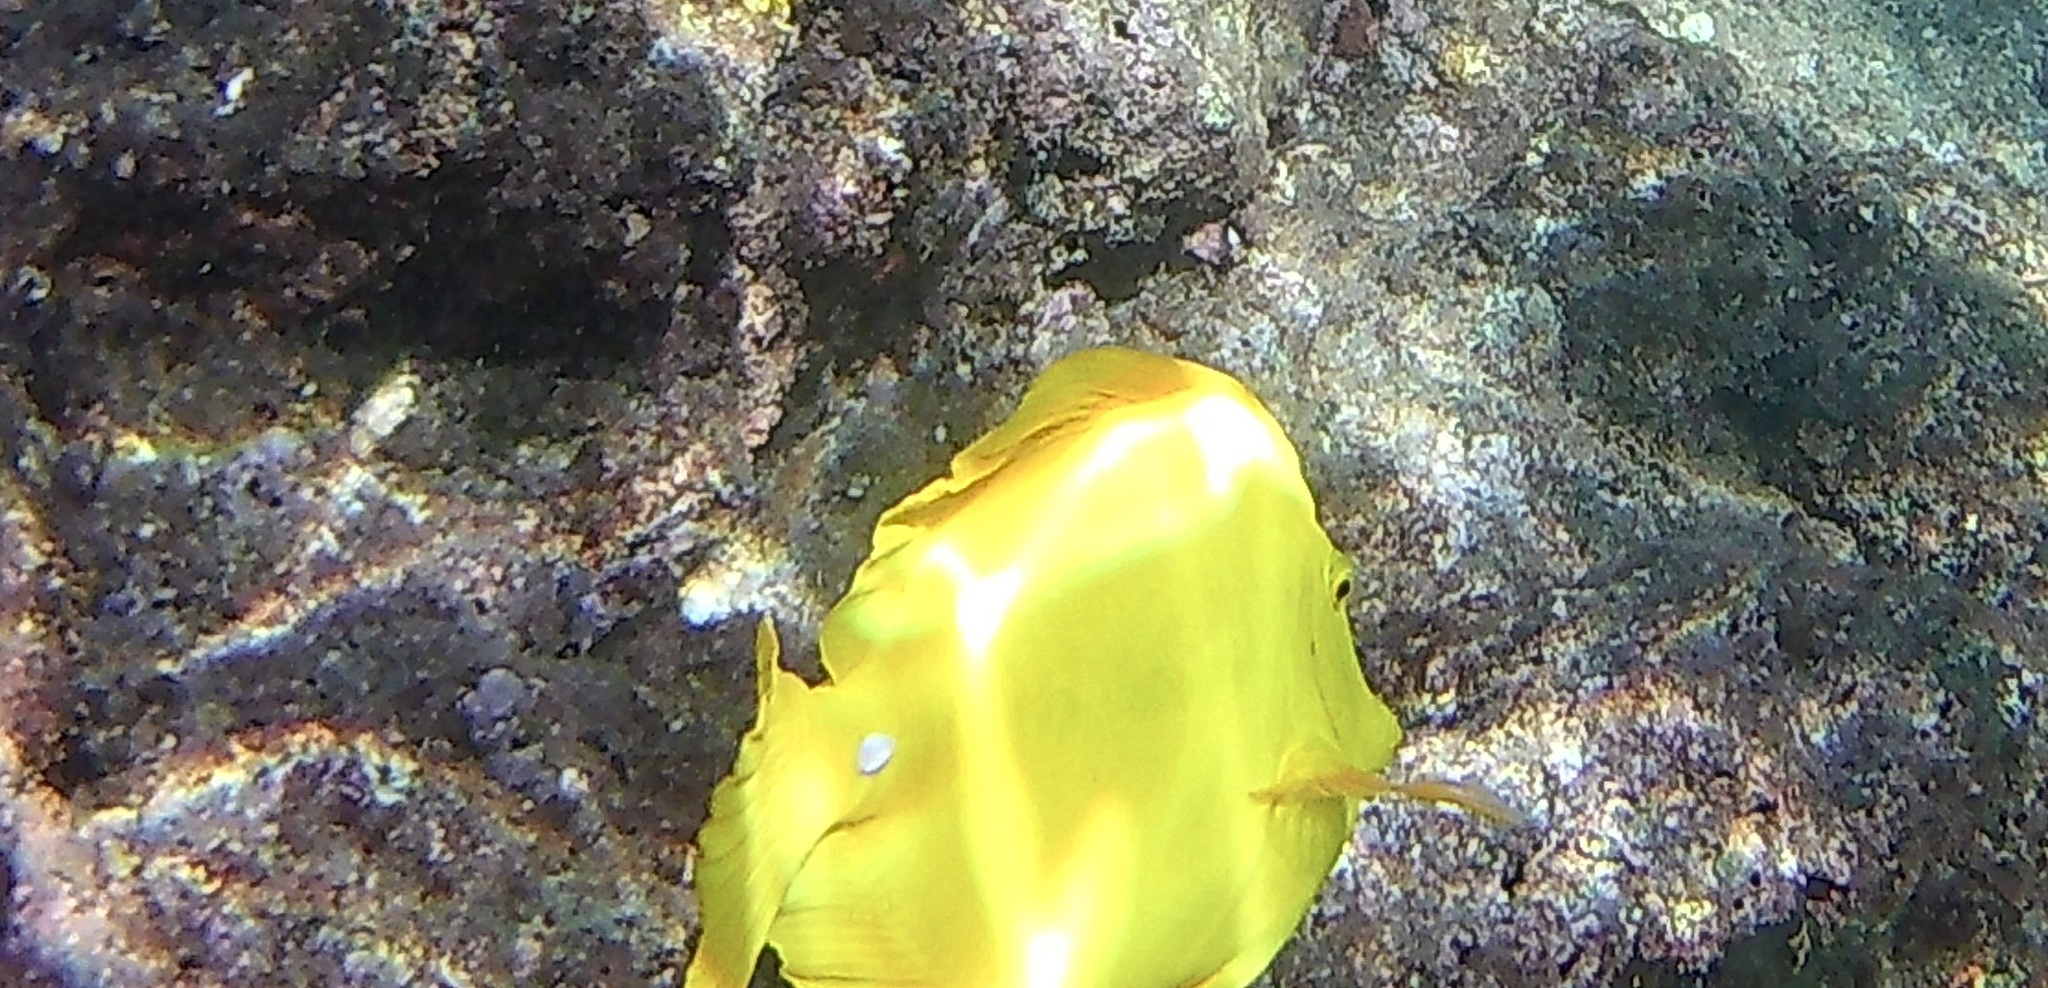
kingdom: Animalia
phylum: Chordata
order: Perciformes
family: Acanthuridae
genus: Zebrasoma
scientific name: Zebrasoma flavescens
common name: Yellow tang
